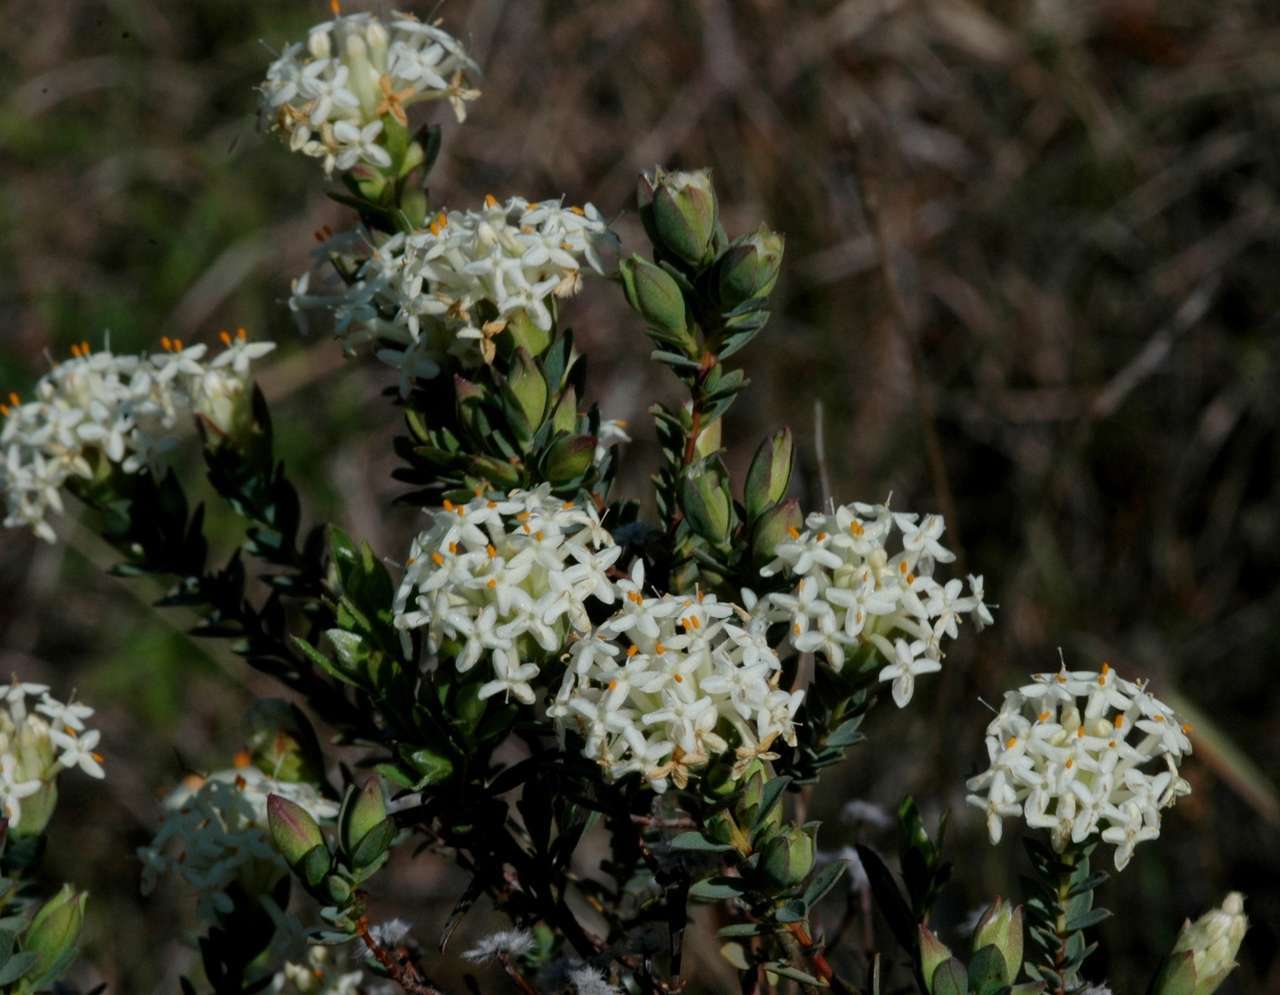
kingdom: Plantae
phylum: Tracheophyta
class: Magnoliopsida
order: Malvales
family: Thymelaeaceae
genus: Pimelea
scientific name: Pimelea glauca
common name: Smooth riceflower
